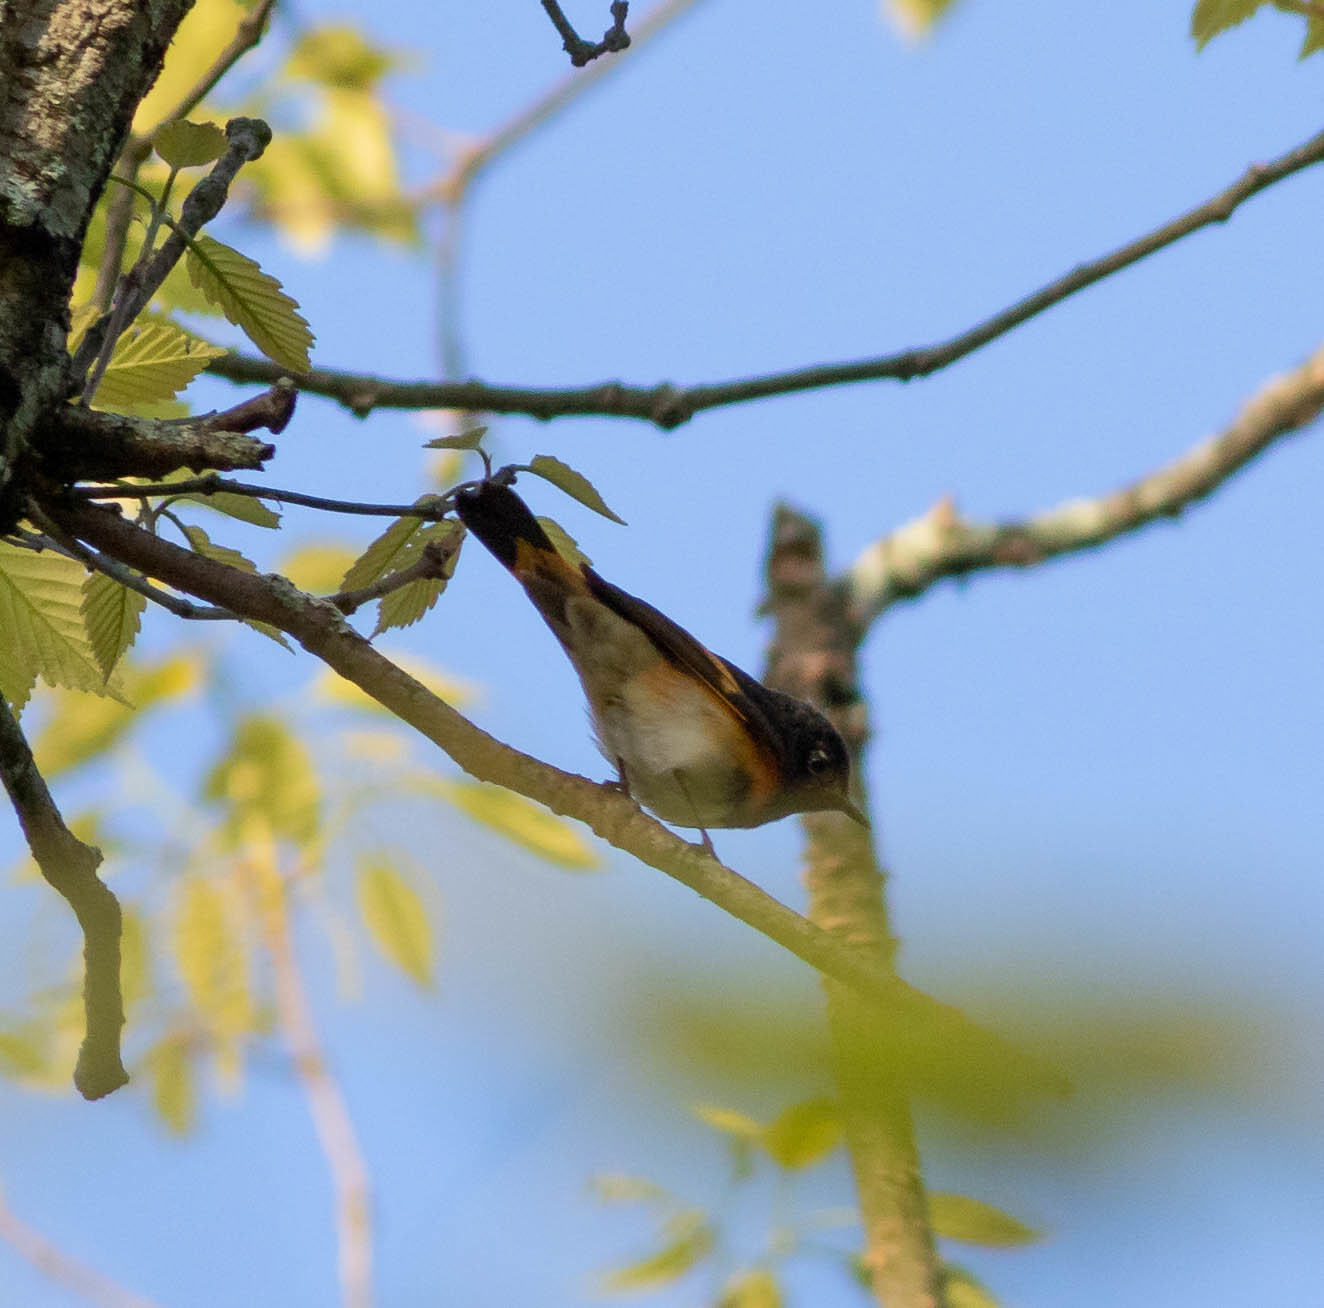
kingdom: Animalia
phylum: Chordata
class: Aves
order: Passeriformes
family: Parulidae
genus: Setophaga
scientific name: Setophaga ruticilla
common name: American redstart
